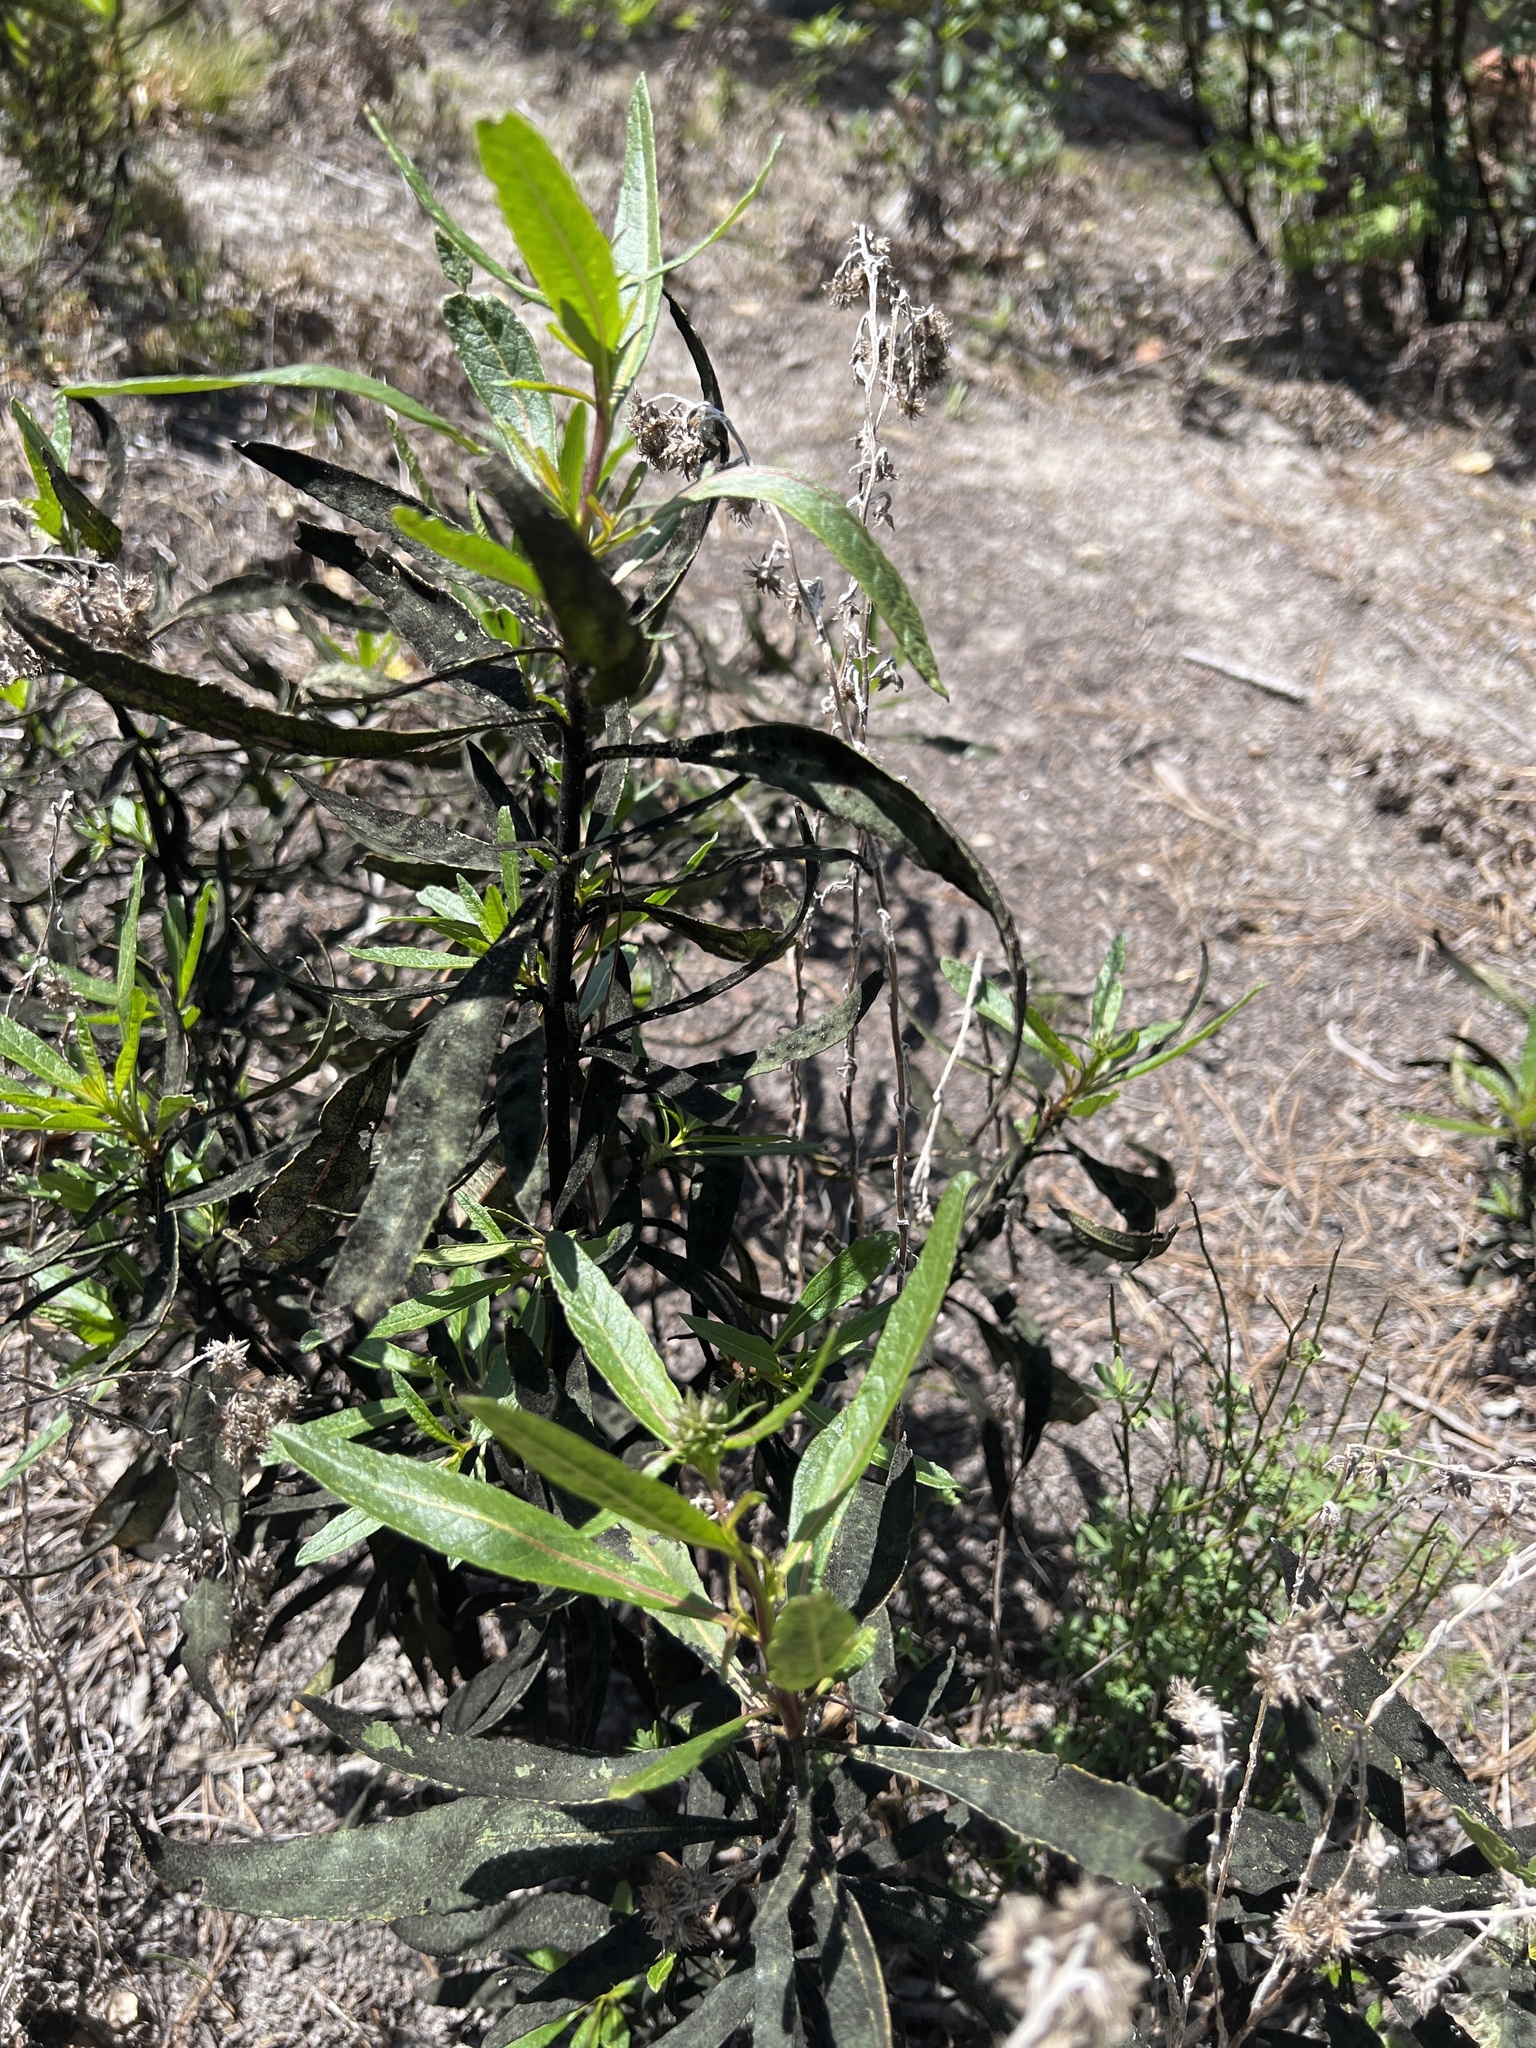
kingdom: Plantae
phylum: Tracheophyta
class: Magnoliopsida
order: Boraginales
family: Namaceae
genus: Eriodictyon
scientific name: Eriodictyon californicum
